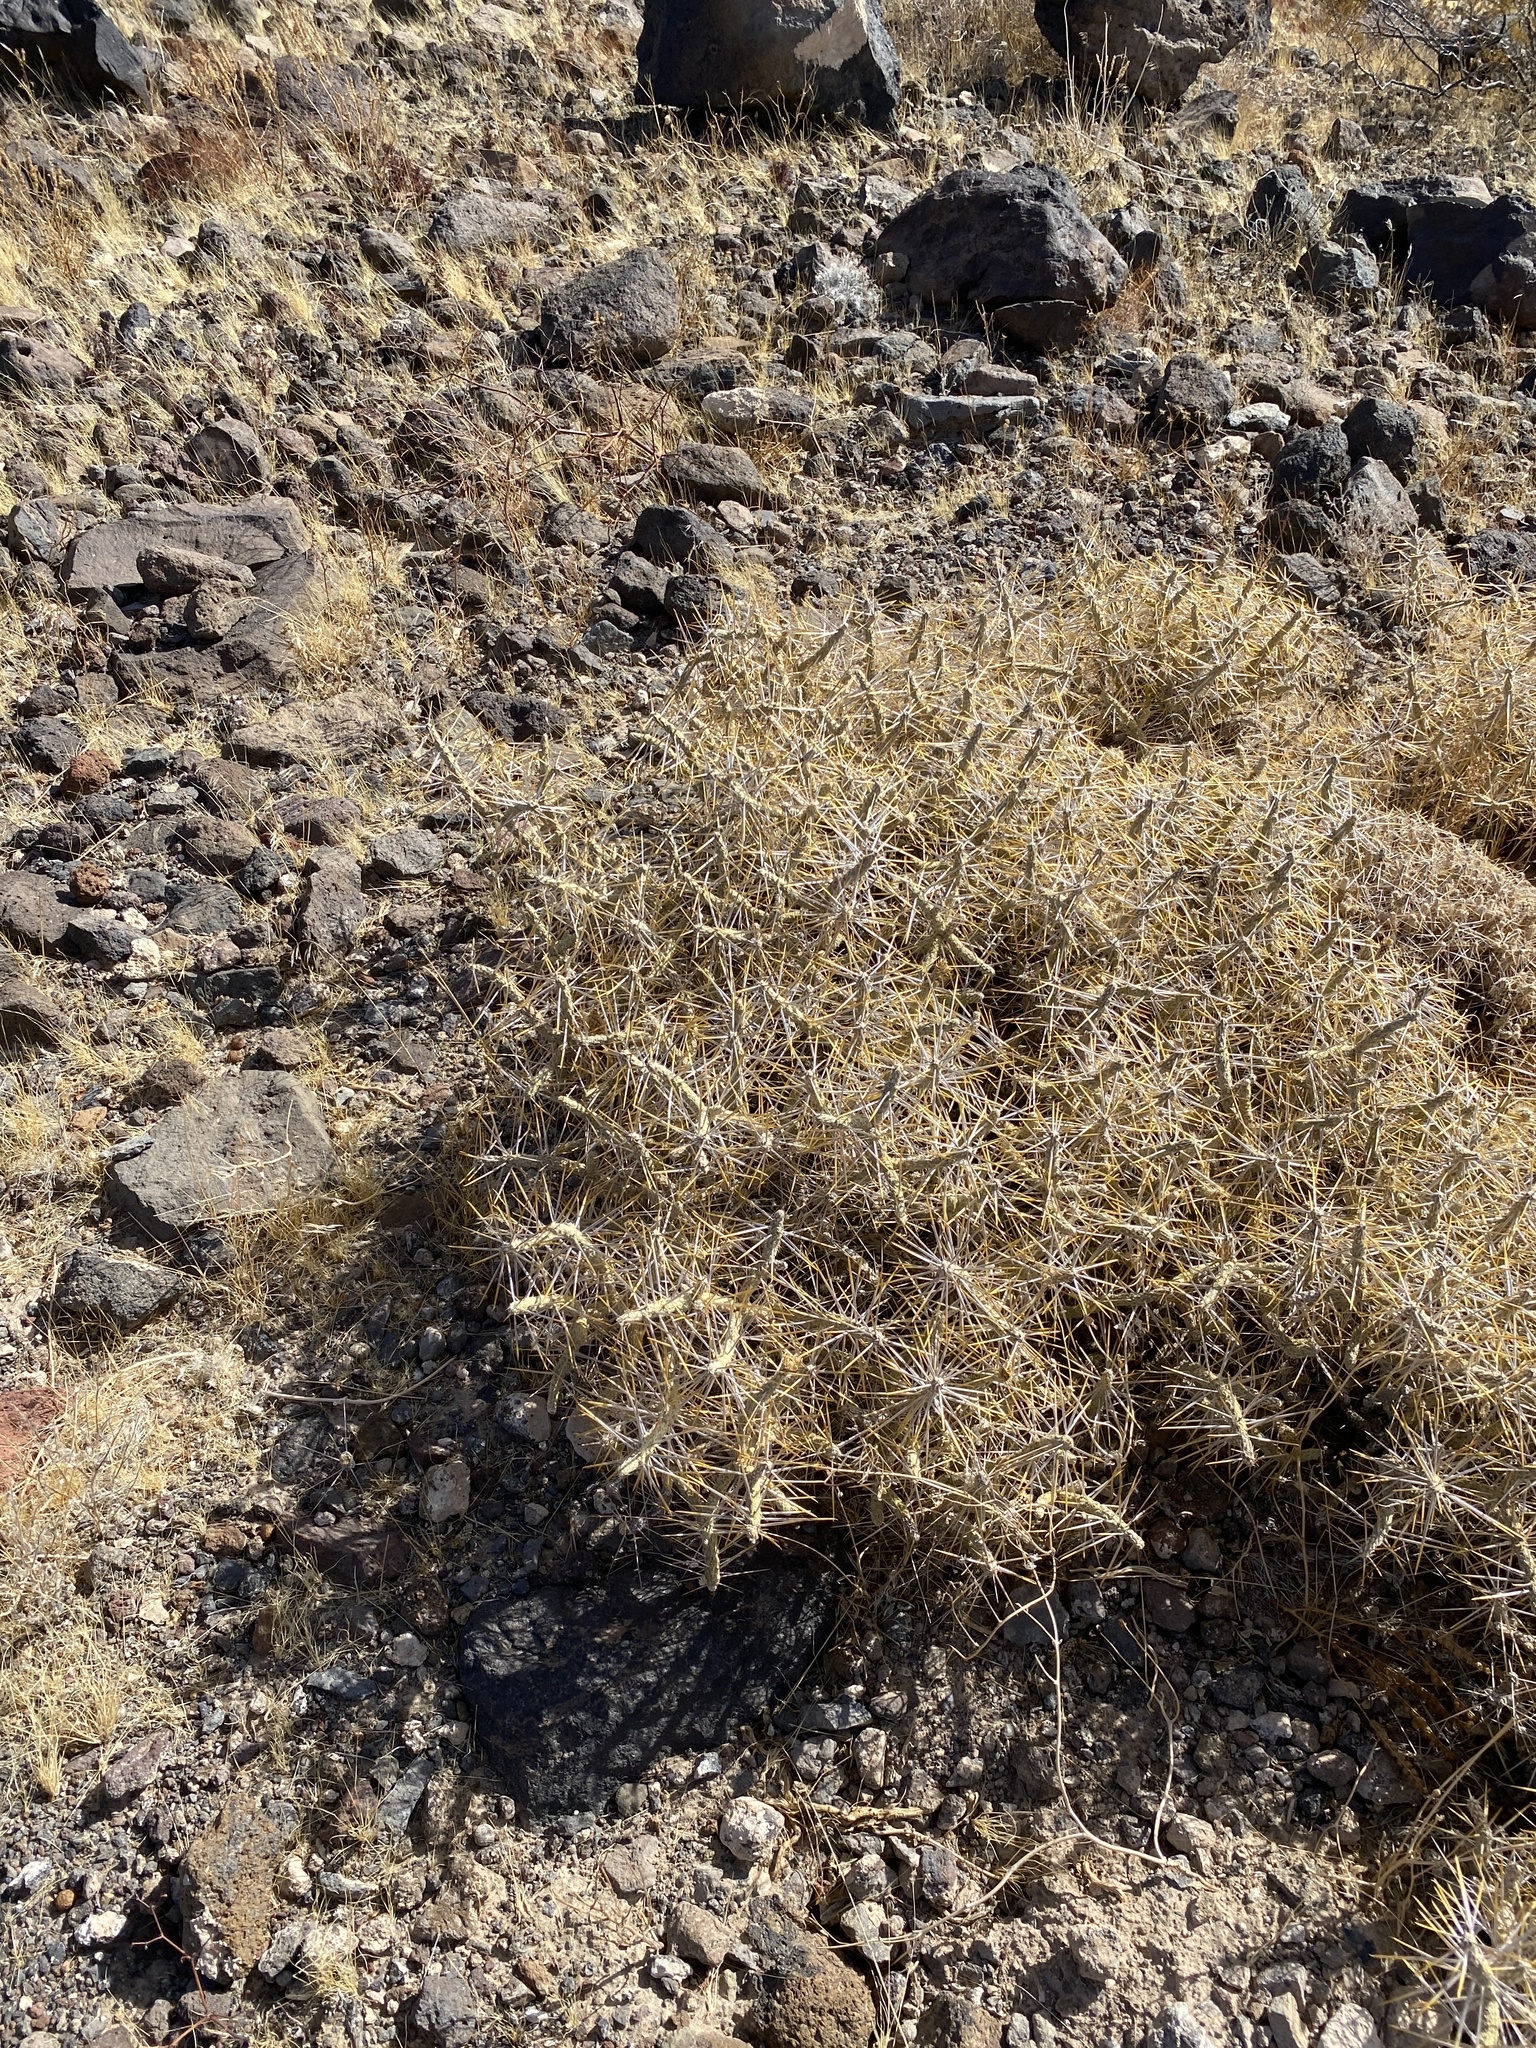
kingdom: Plantae
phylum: Tracheophyta
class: Magnoliopsida
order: Caryophyllales
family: Cactaceae
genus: Cylindropuntia
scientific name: Cylindropuntia ramosissima
